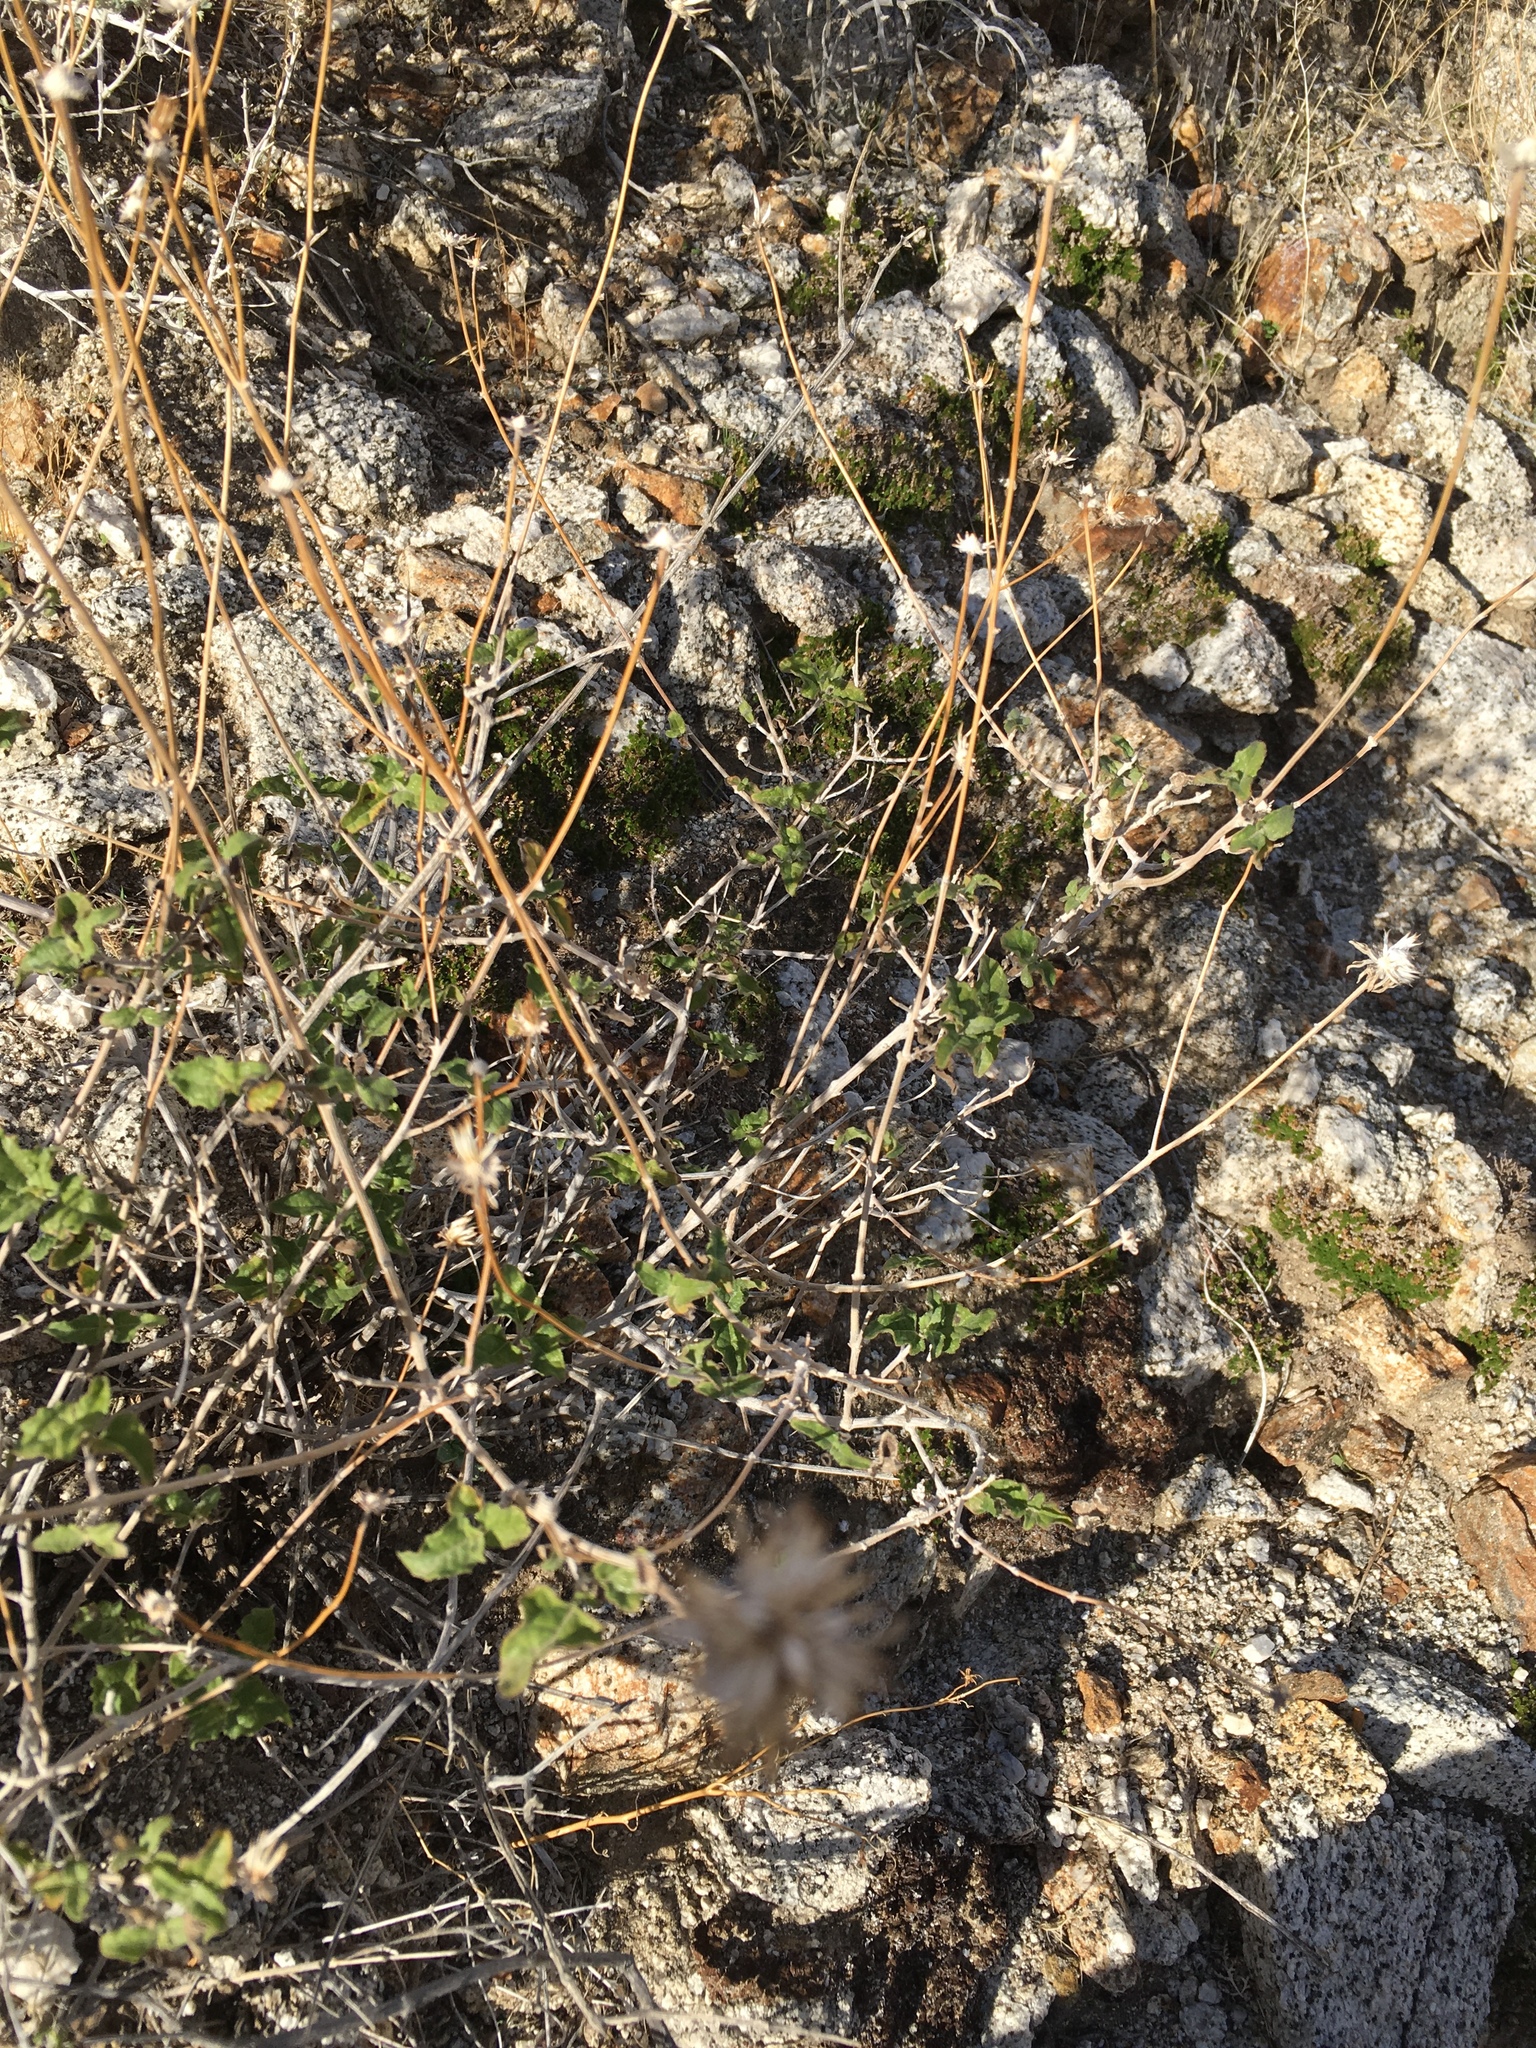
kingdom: Plantae
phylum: Tracheophyta
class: Magnoliopsida
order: Asterales
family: Asteraceae
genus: Bahiopsis
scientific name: Bahiopsis parishii
